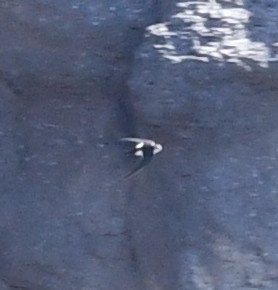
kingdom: Animalia
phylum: Chordata
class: Aves
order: Apodiformes
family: Apodidae
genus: Aeronautes
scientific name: Aeronautes saxatalis
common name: White-throated swift
